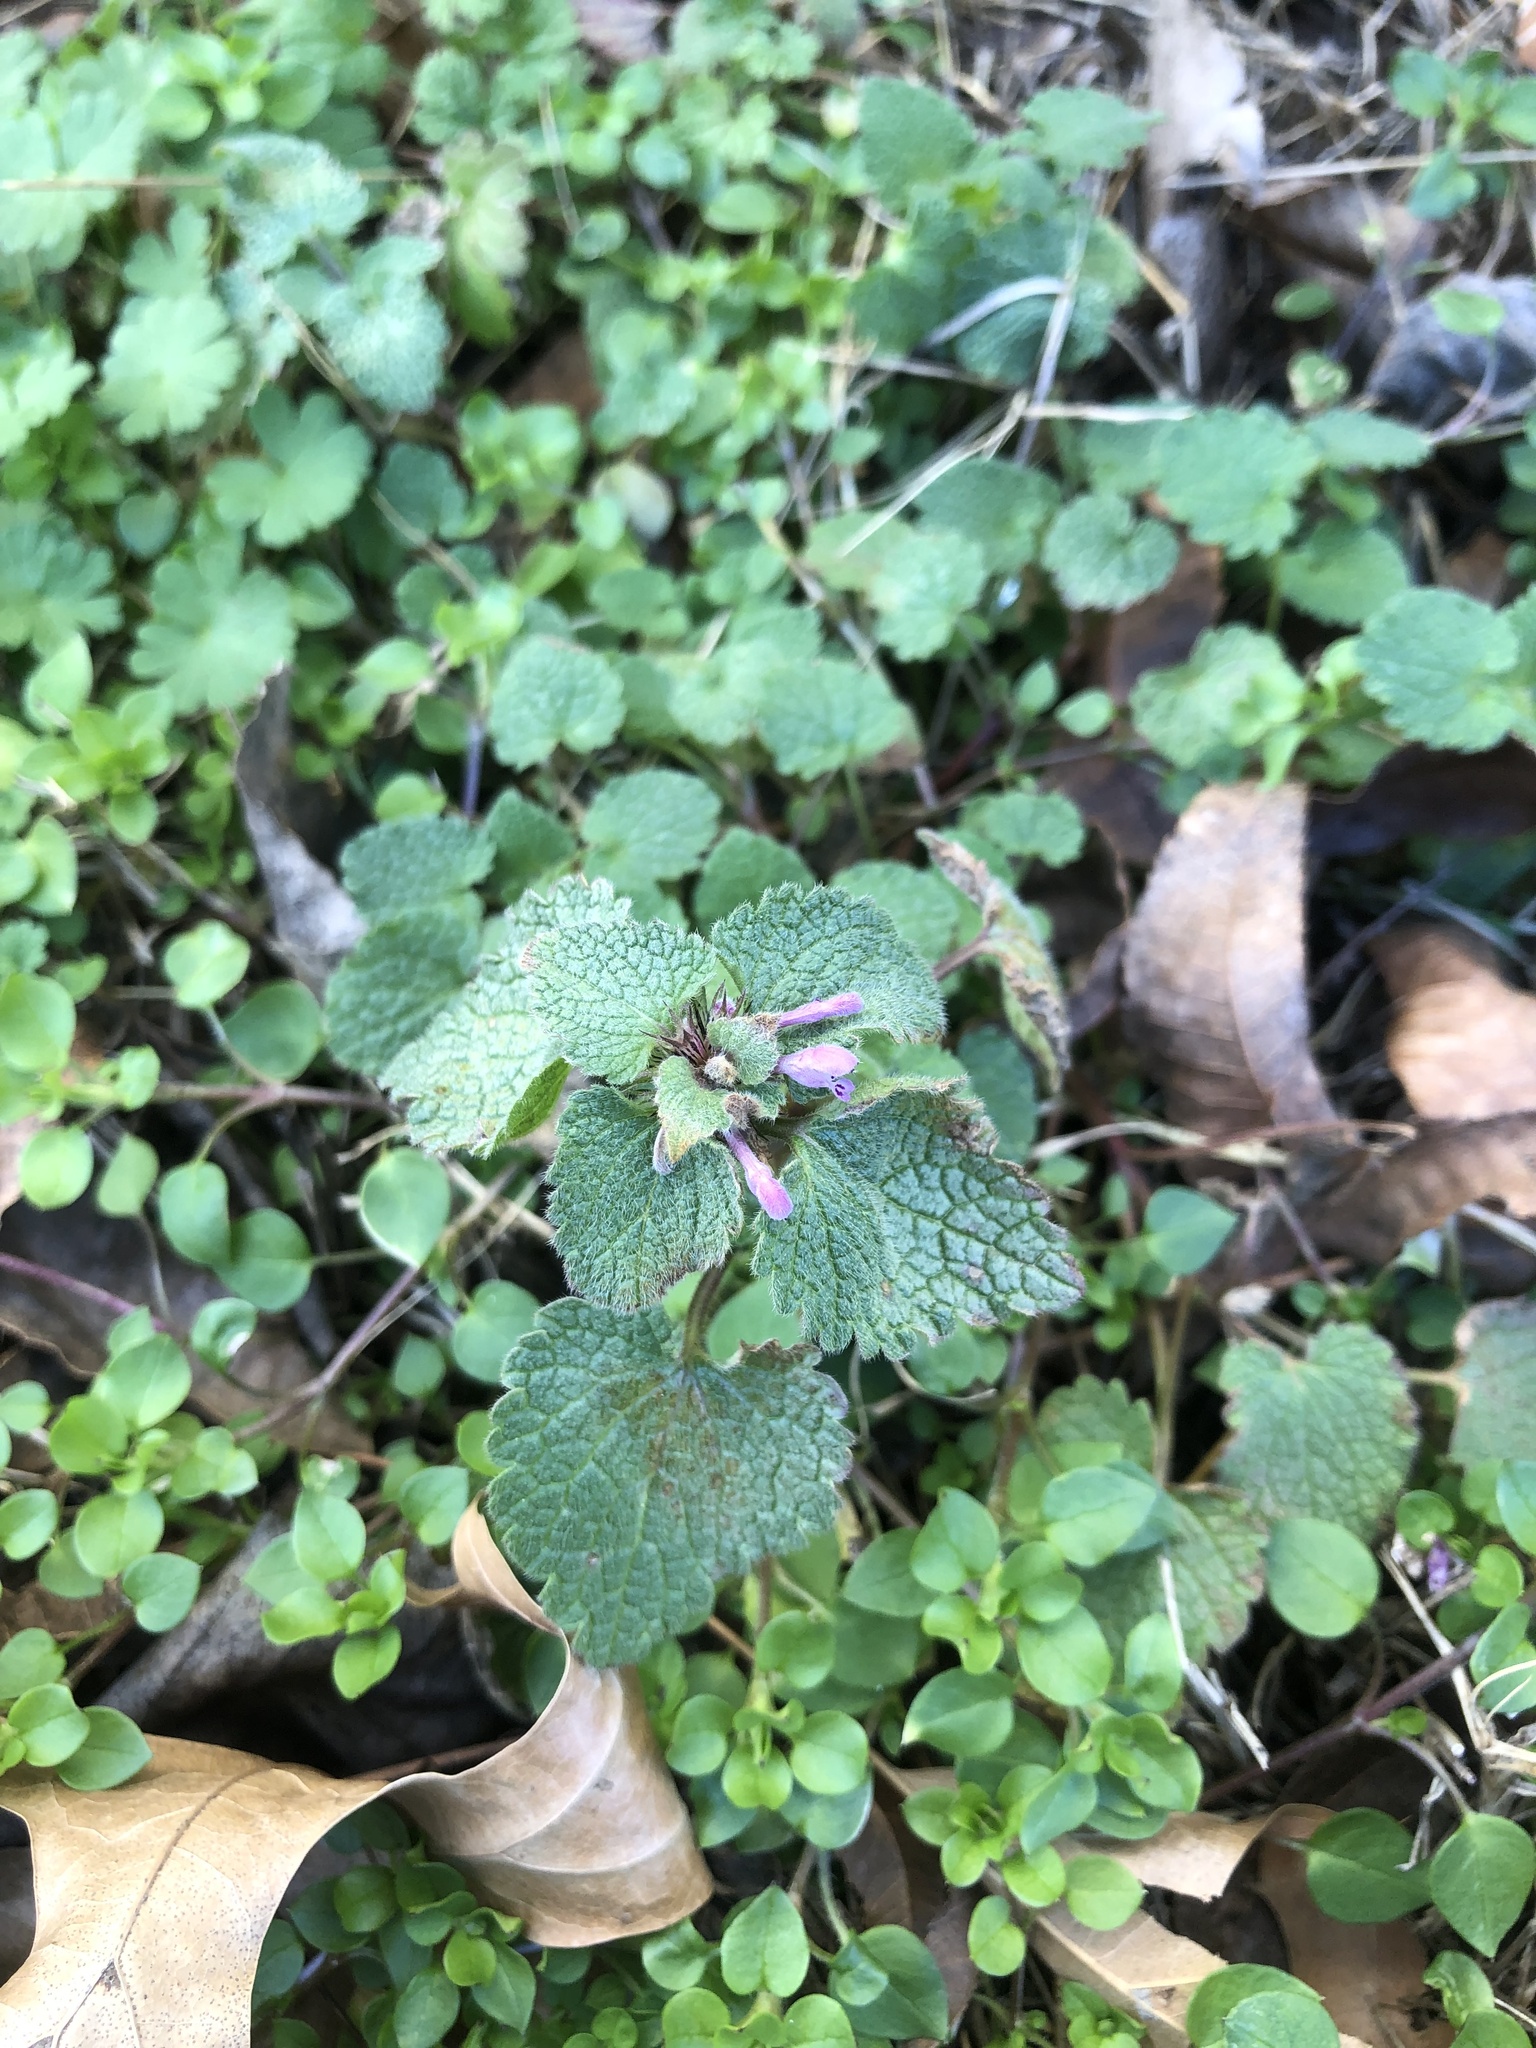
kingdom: Plantae
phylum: Tracheophyta
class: Magnoliopsida
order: Lamiales
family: Lamiaceae
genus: Lamium
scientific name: Lamium purpureum
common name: Red dead-nettle
